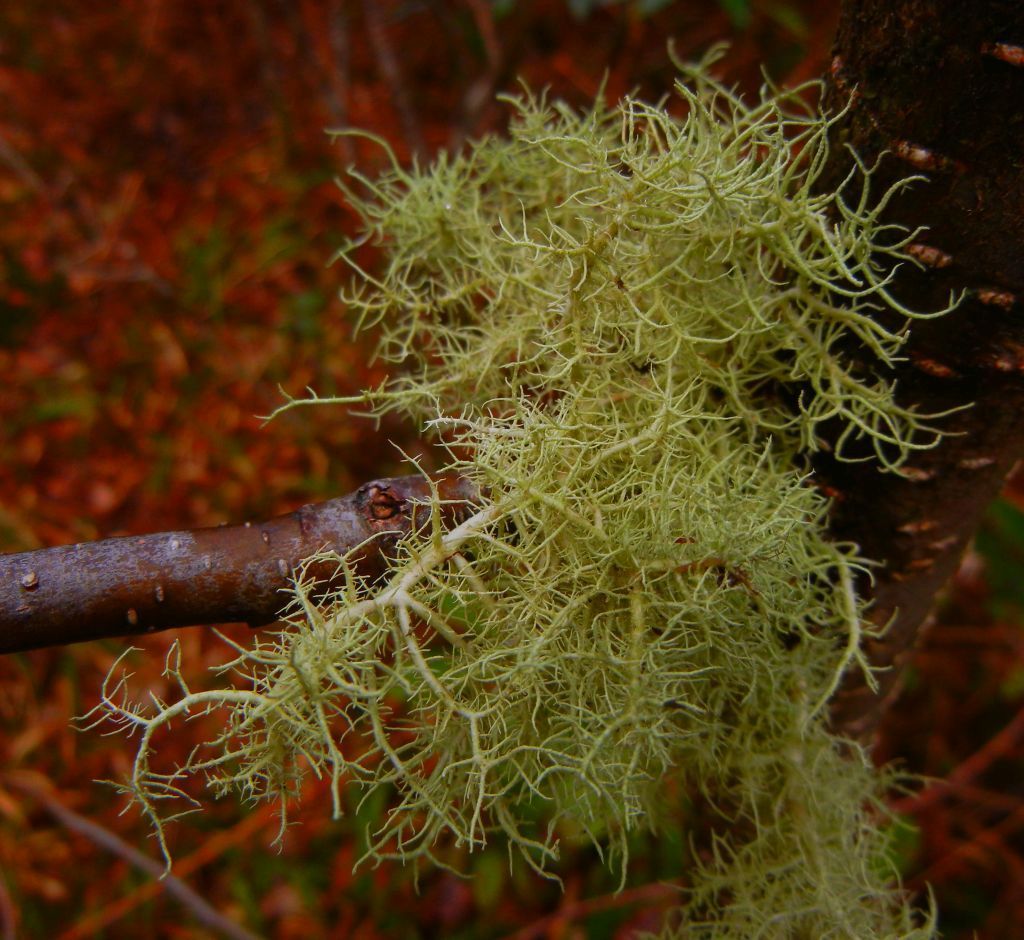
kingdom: Fungi
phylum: Ascomycota
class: Lecanoromycetes
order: Lecanorales
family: Parmeliaceae
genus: Usnea
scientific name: Usnea
